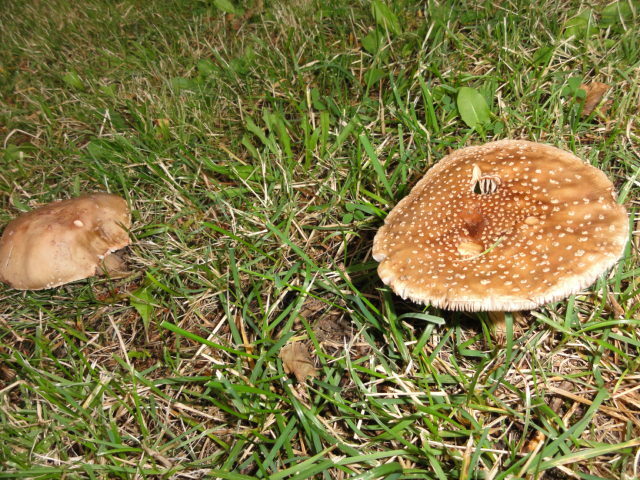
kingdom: Fungi
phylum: Basidiomycota
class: Agaricomycetes
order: Agaricales
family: Amanitaceae
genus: Amanita
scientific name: Amanita rubescens
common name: Blusher
